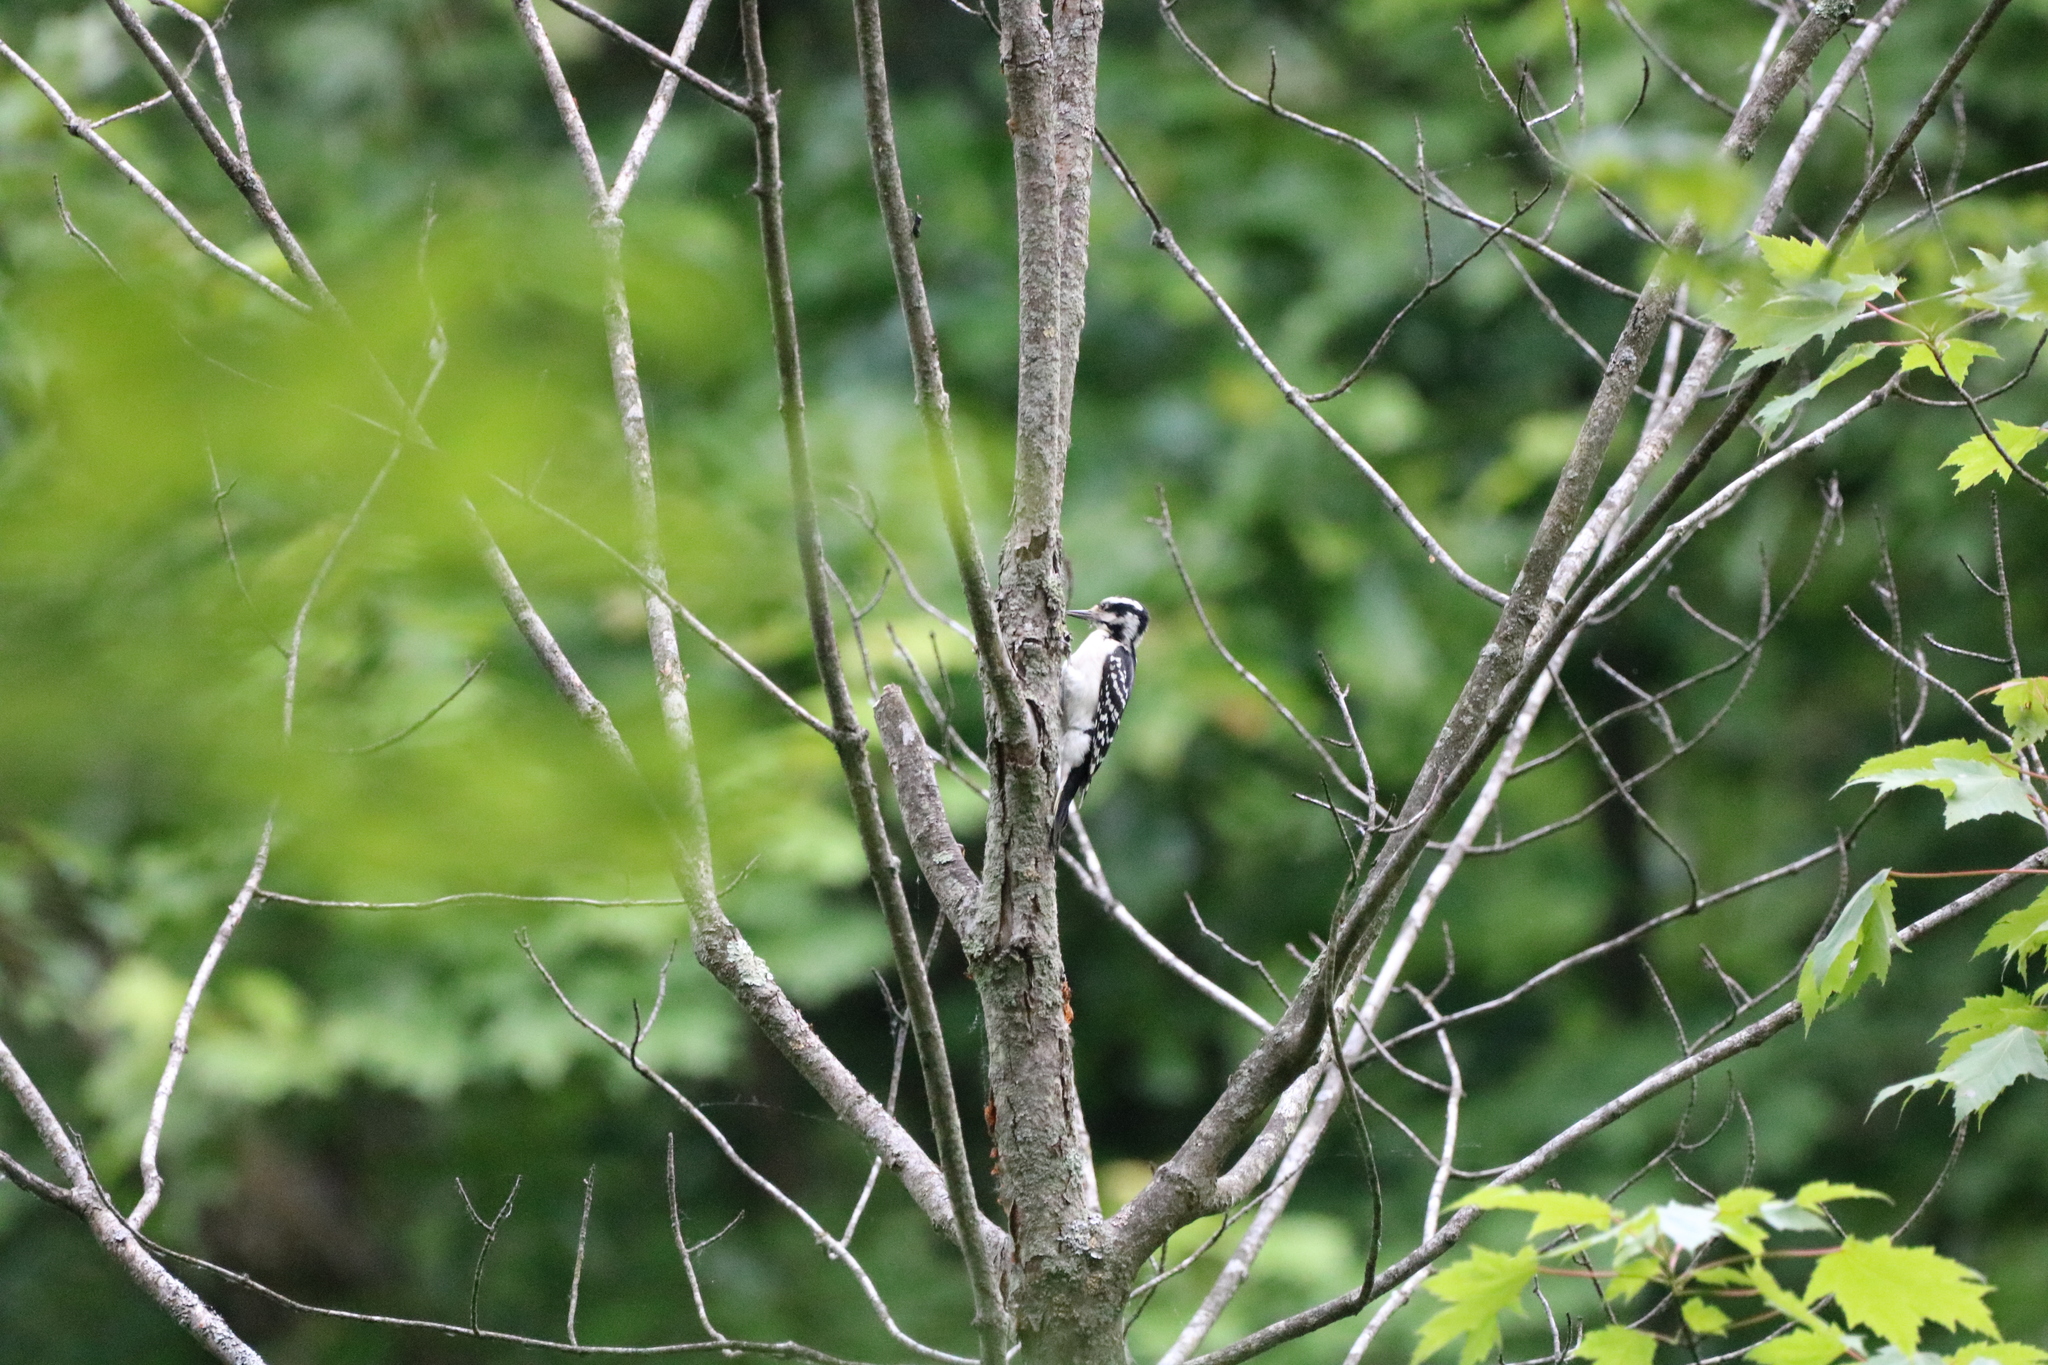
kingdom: Animalia
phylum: Chordata
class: Aves
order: Piciformes
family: Picidae
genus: Leuconotopicus
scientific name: Leuconotopicus villosus
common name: Hairy woodpecker
